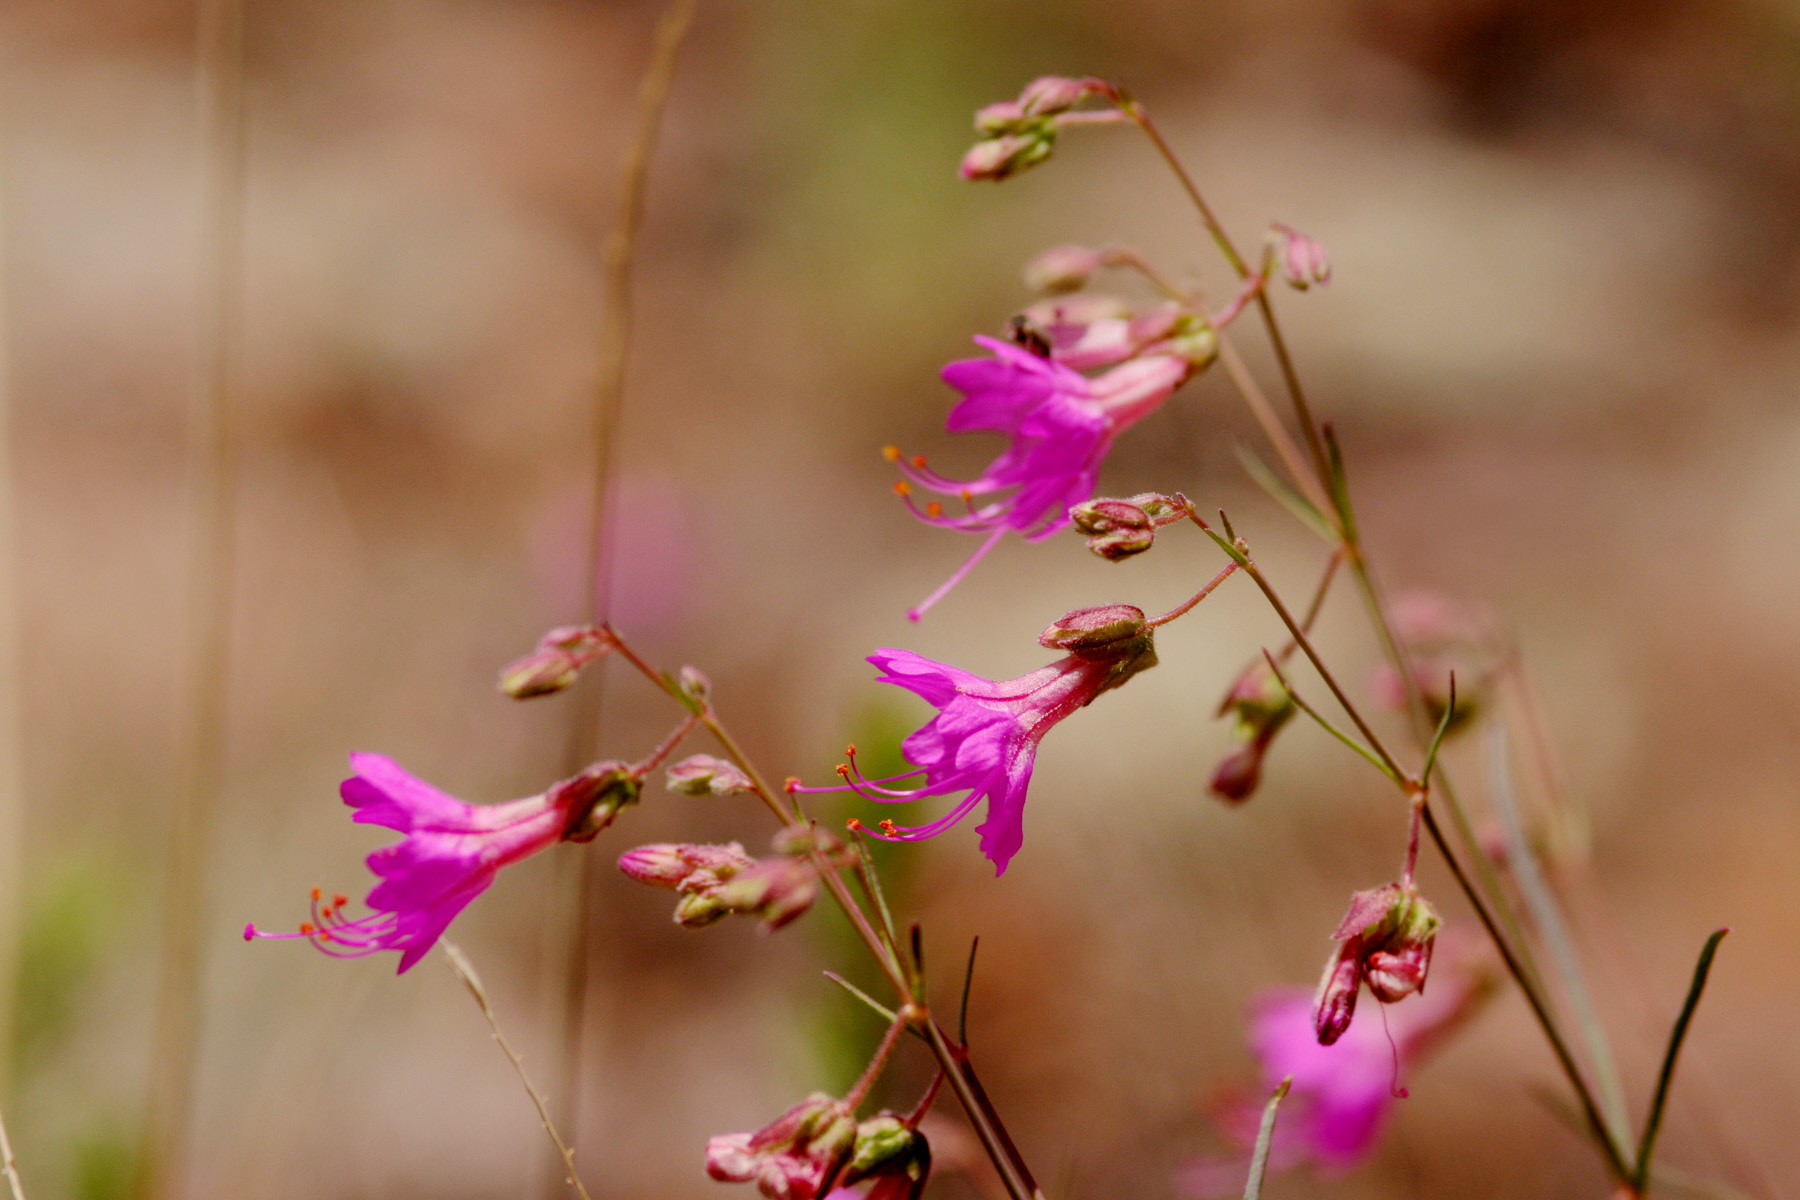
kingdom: Plantae
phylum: Tracheophyta
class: Magnoliopsida
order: Caryophyllales
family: Nyctaginaceae
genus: Mirabilis
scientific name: Mirabilis coccinea
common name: Scarlet four-o'clock
